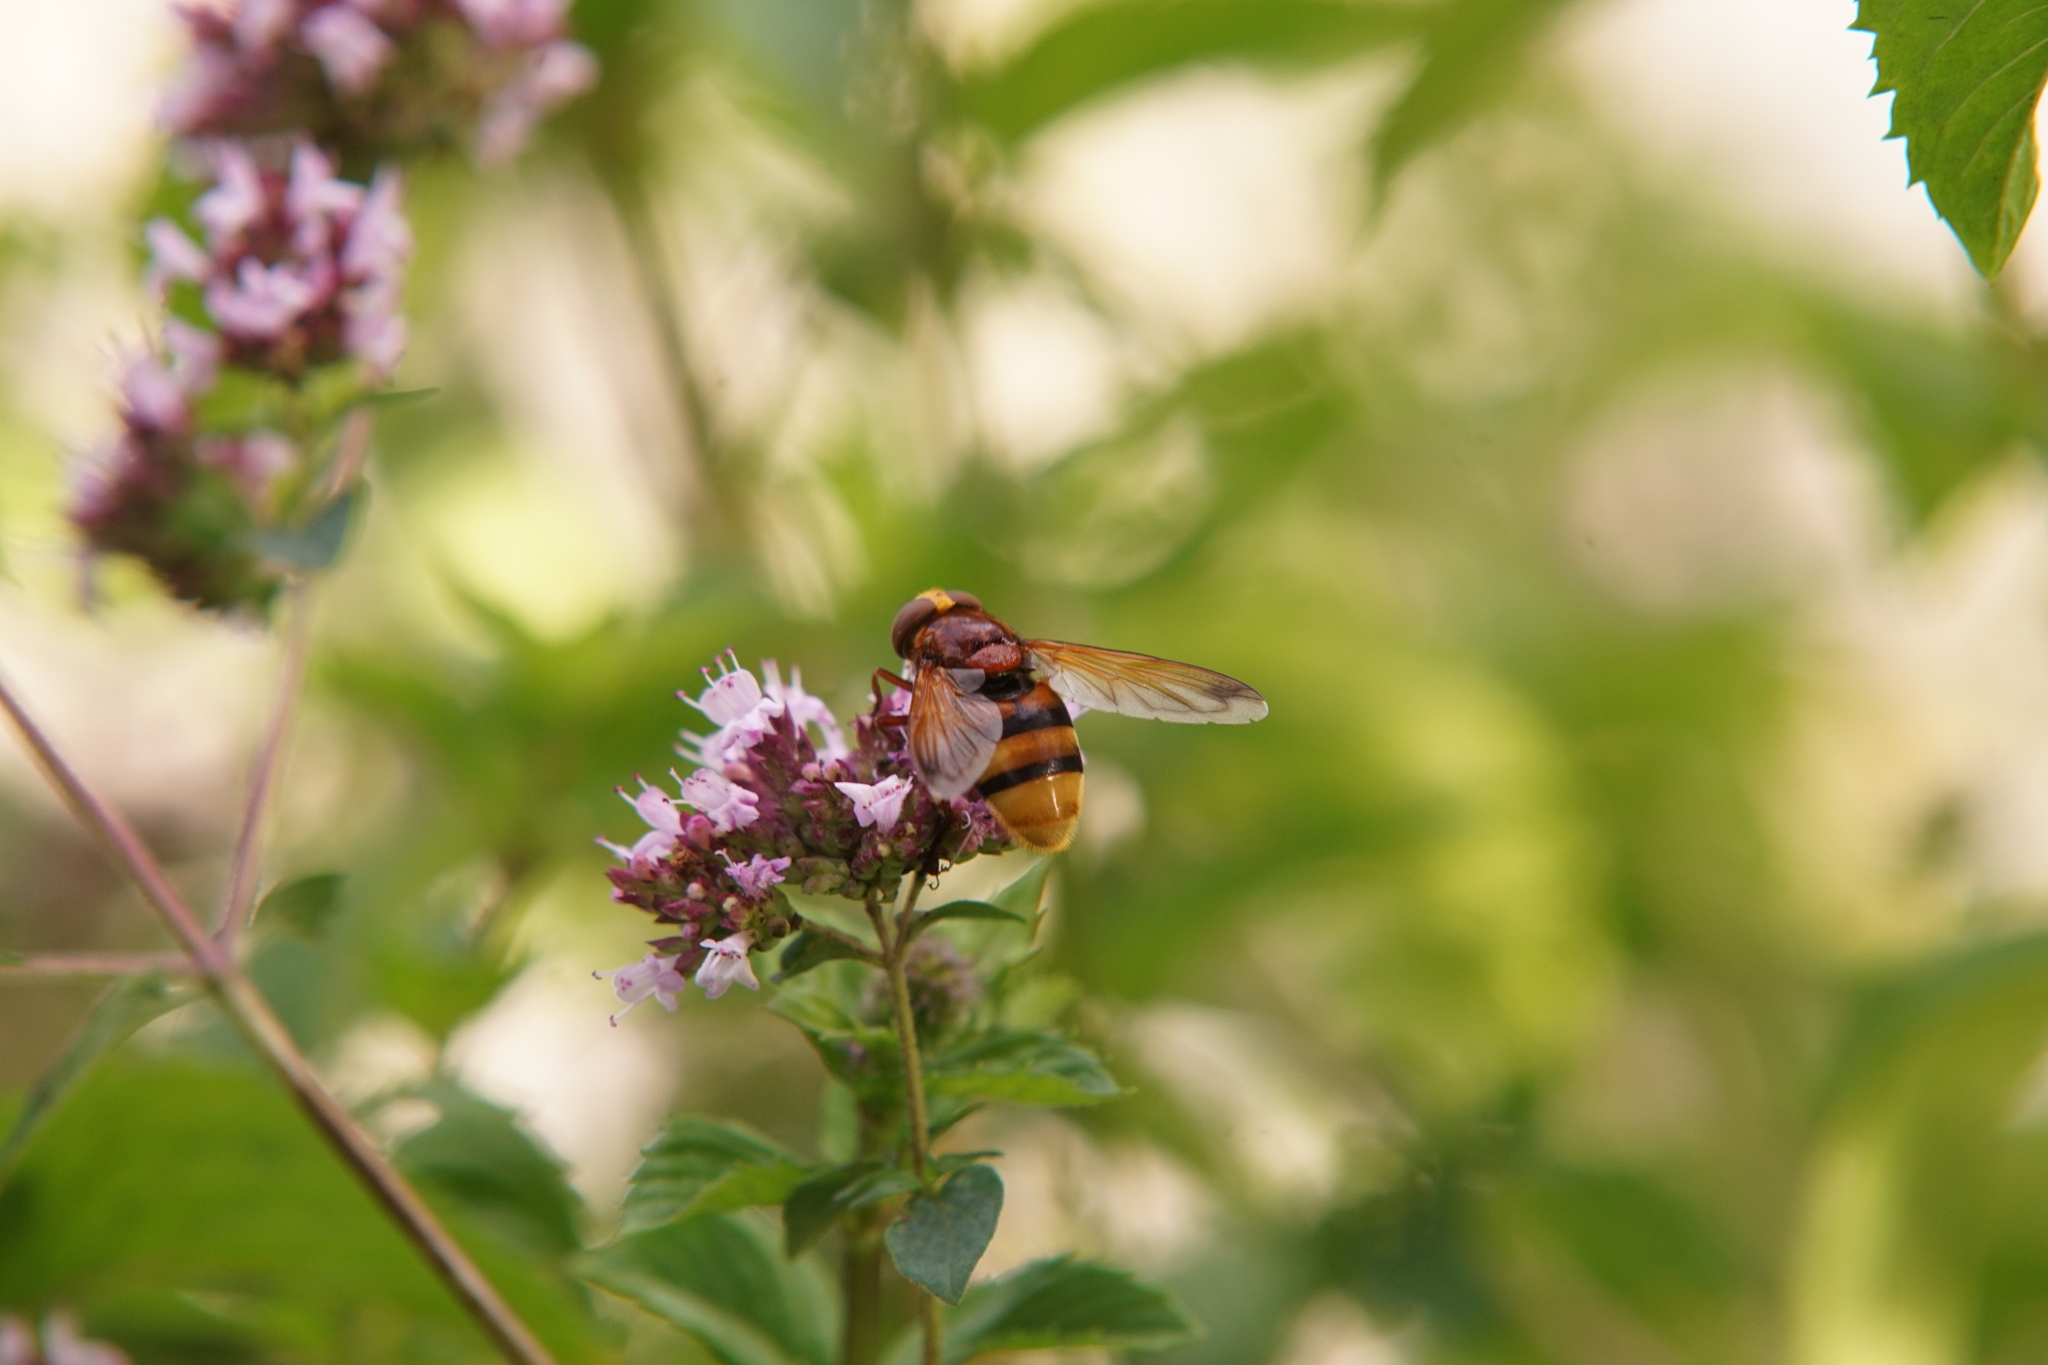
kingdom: Animalia
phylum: Arthropoda
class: Insecta
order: Diptera
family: Syrphidae
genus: Volucella
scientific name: Volucella zonaria
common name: Hornet hoverfly
